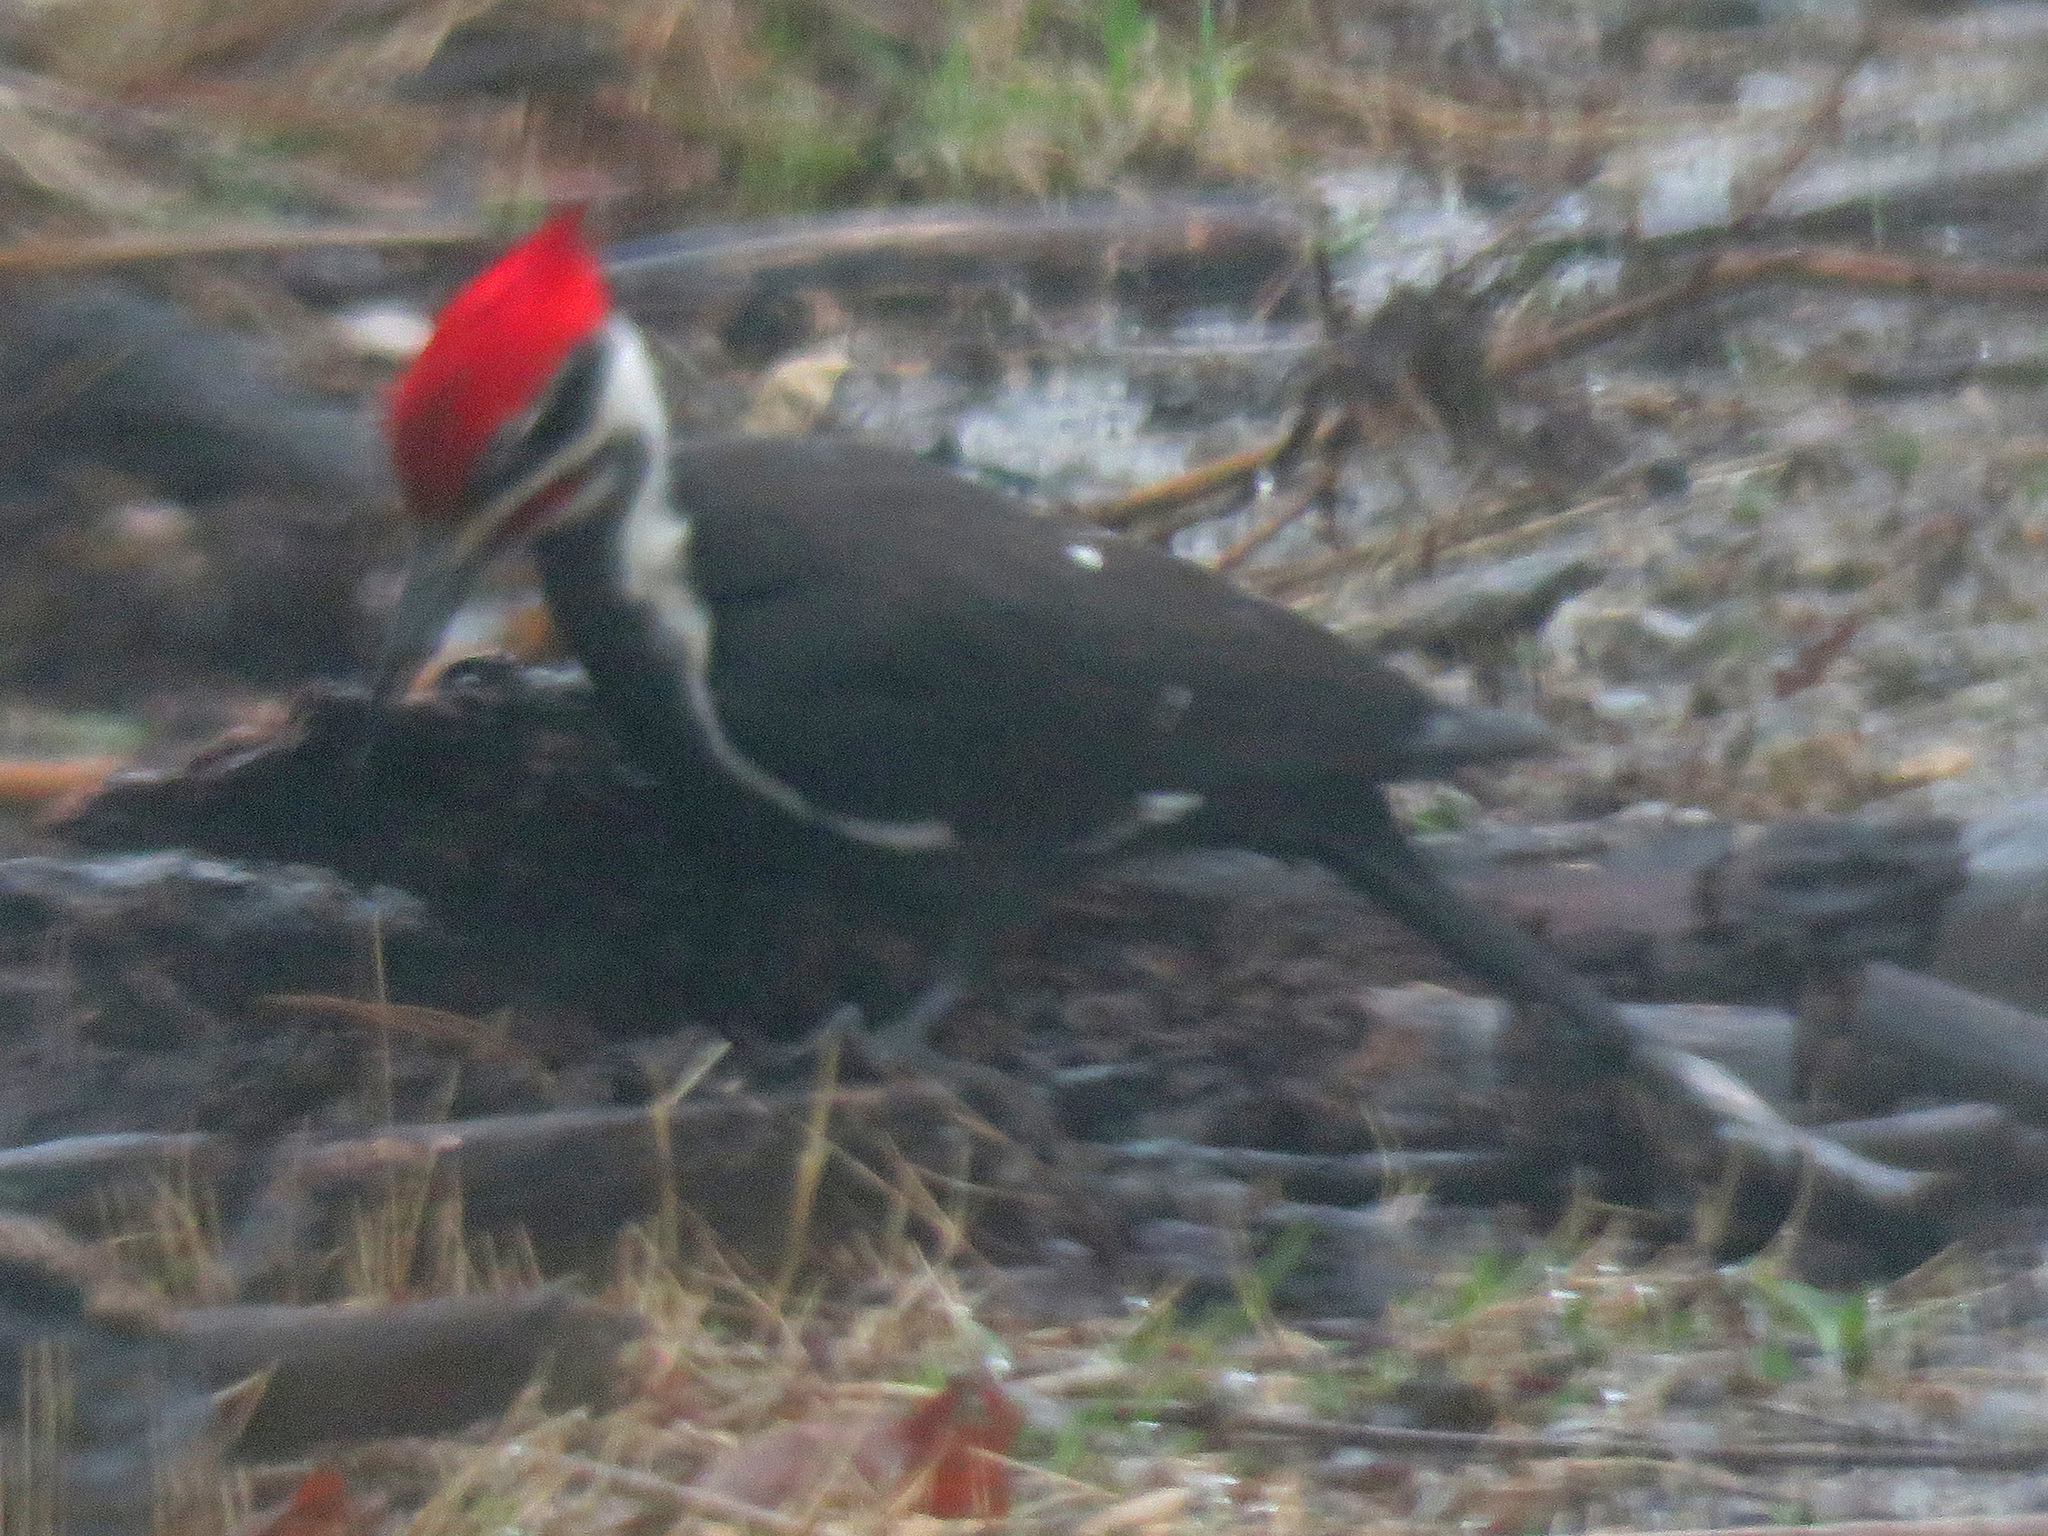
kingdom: Animalia
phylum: Chordata
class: Aves
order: Piciformes
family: Picidae
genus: Dryocopus
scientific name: Dryocopus pileatus
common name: Pileated woodpecker
